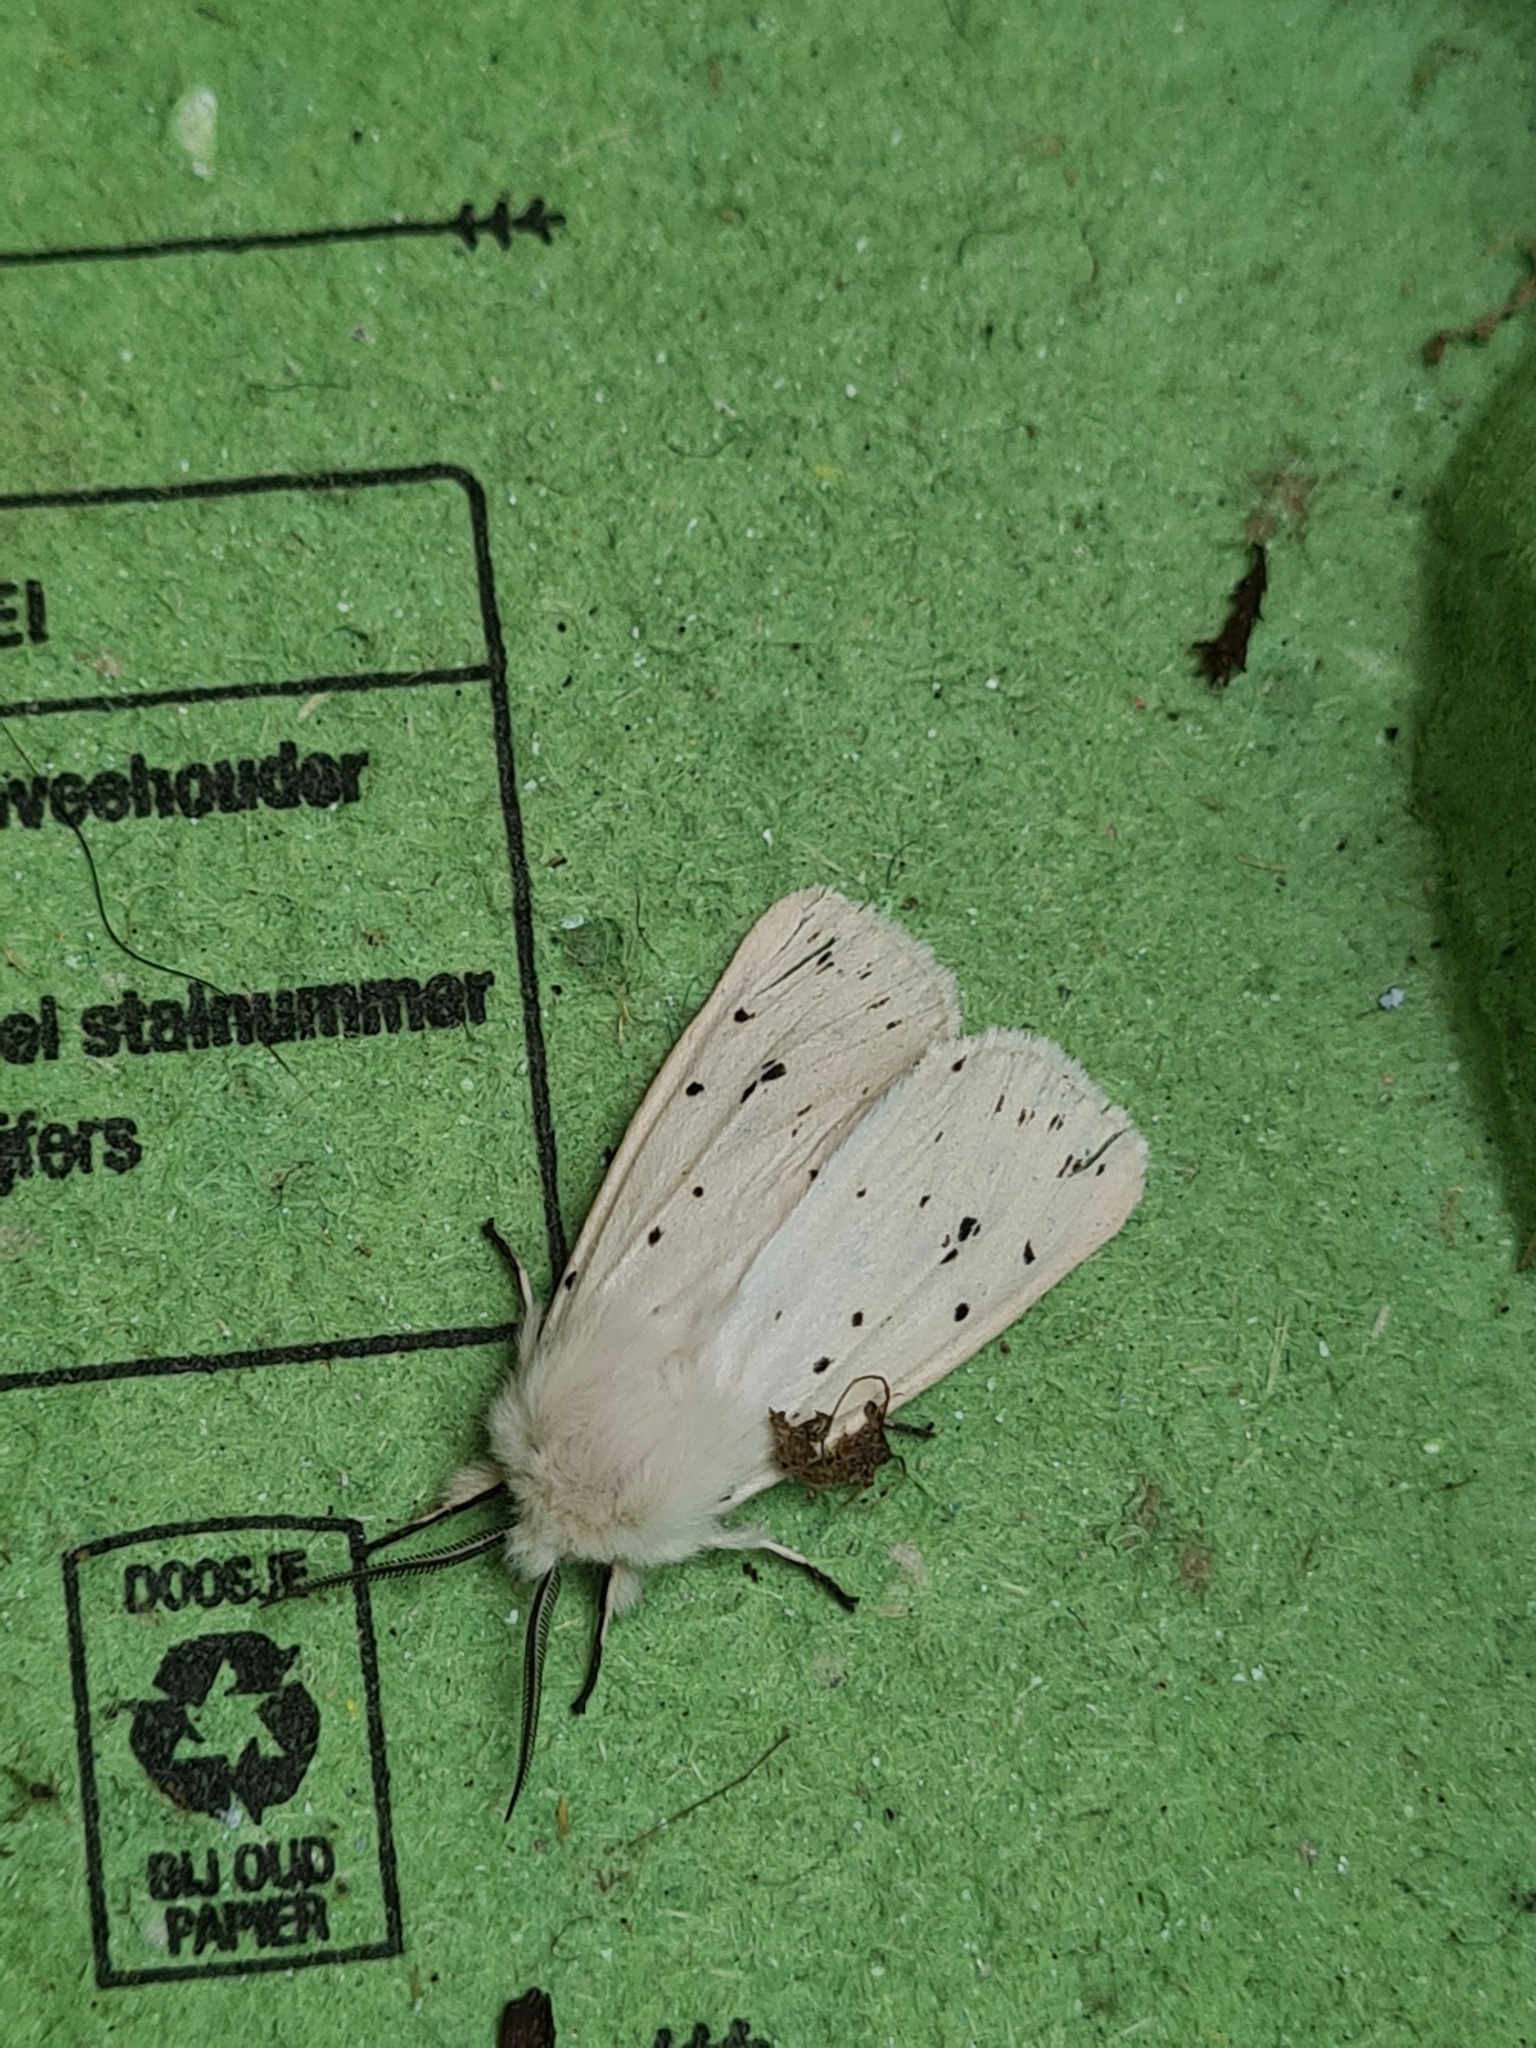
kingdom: Animalia
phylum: Arthropoda
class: Insecta
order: Lepidoptera
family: Erebidae
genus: Spilosoma
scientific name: Spilosoma lubricipeda
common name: White ermine
